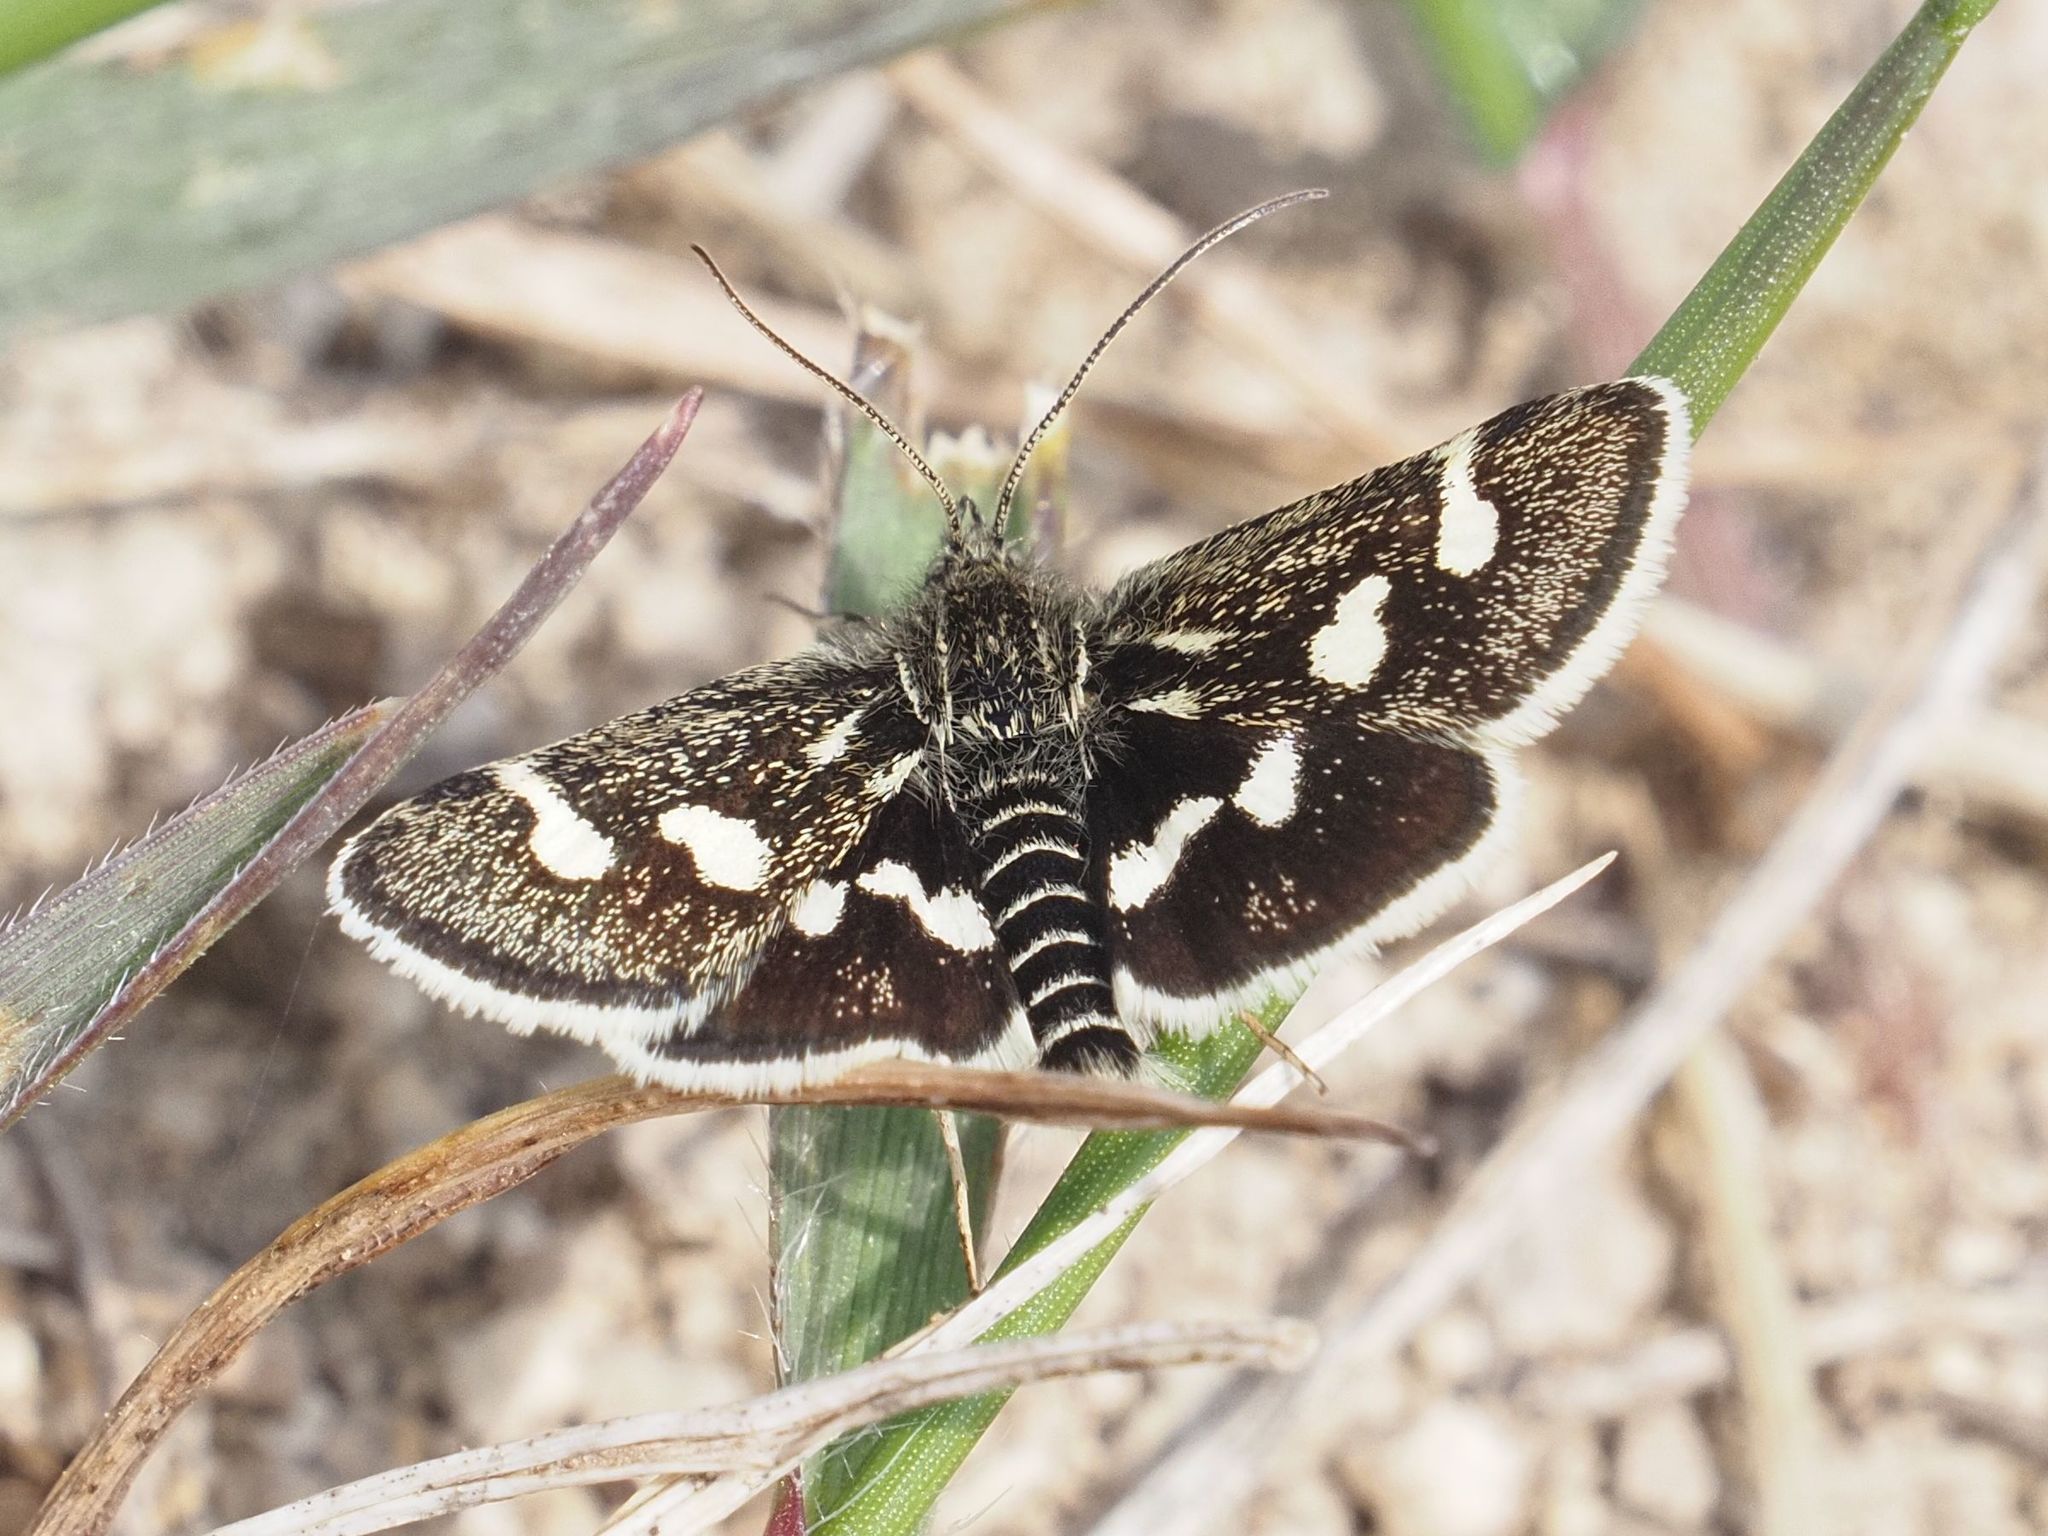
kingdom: Animalia
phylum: Arthropoda
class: Insecta
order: Lepidoptera
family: Crambidae
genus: Eurrhypis
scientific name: Eurrhypis pollinalis
